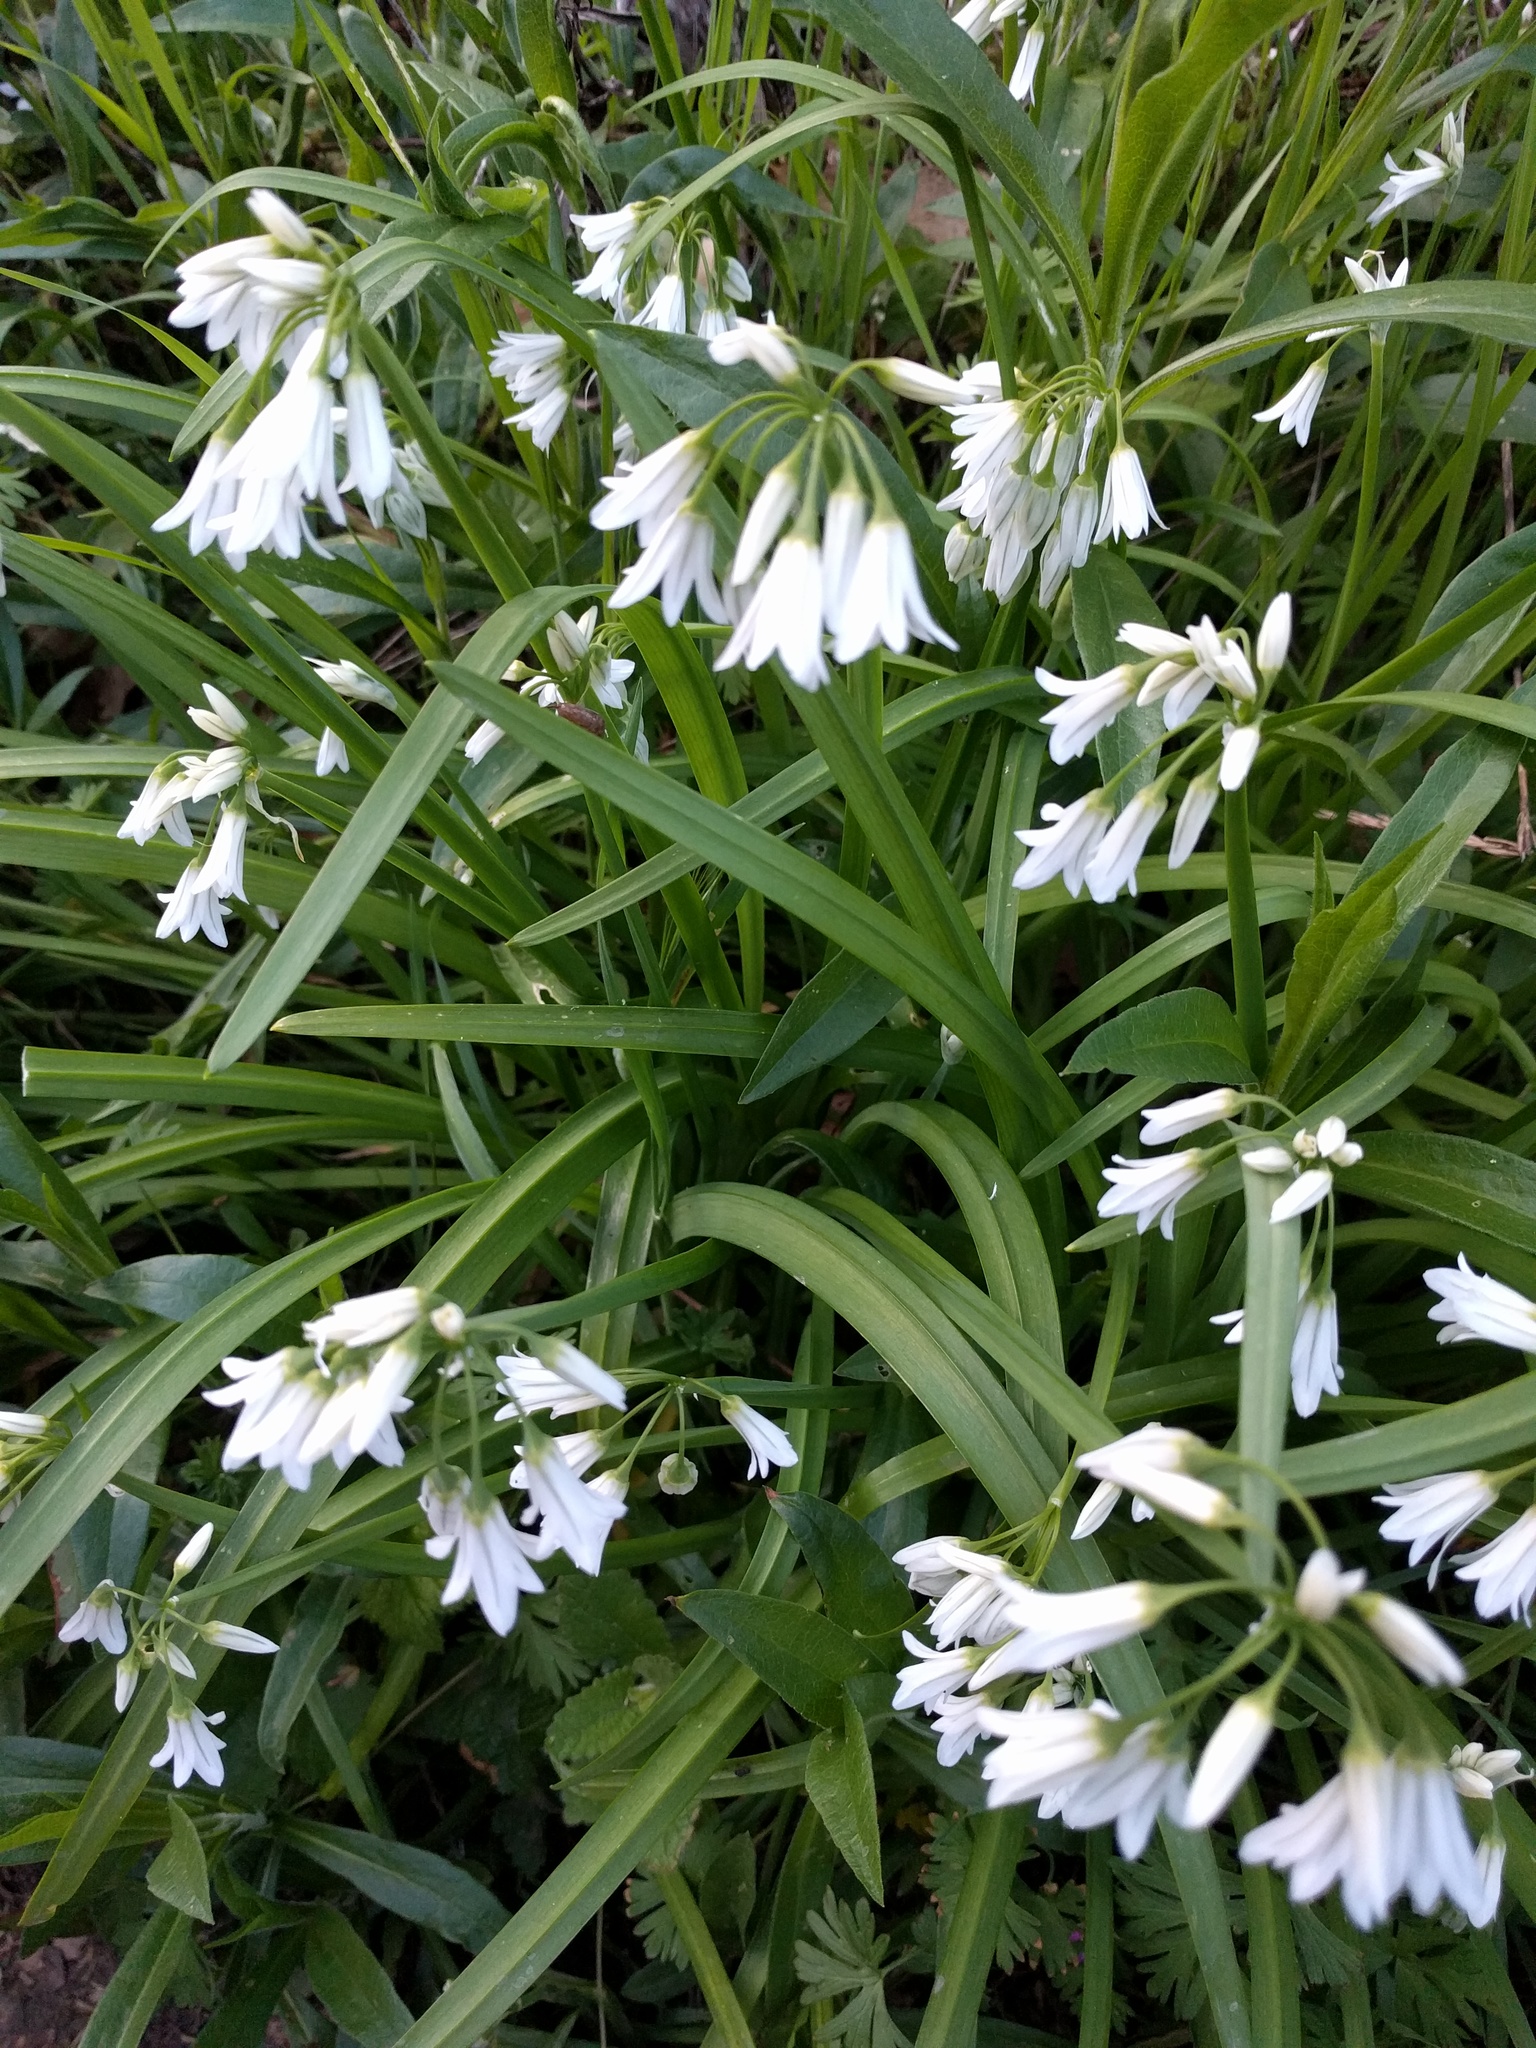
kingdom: Plantae
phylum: Tracheophyta
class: Liliopsida
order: Asparagales
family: Amaryllidaceae
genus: Allium
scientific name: Allium triquetrum
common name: Three-cornered garlic
